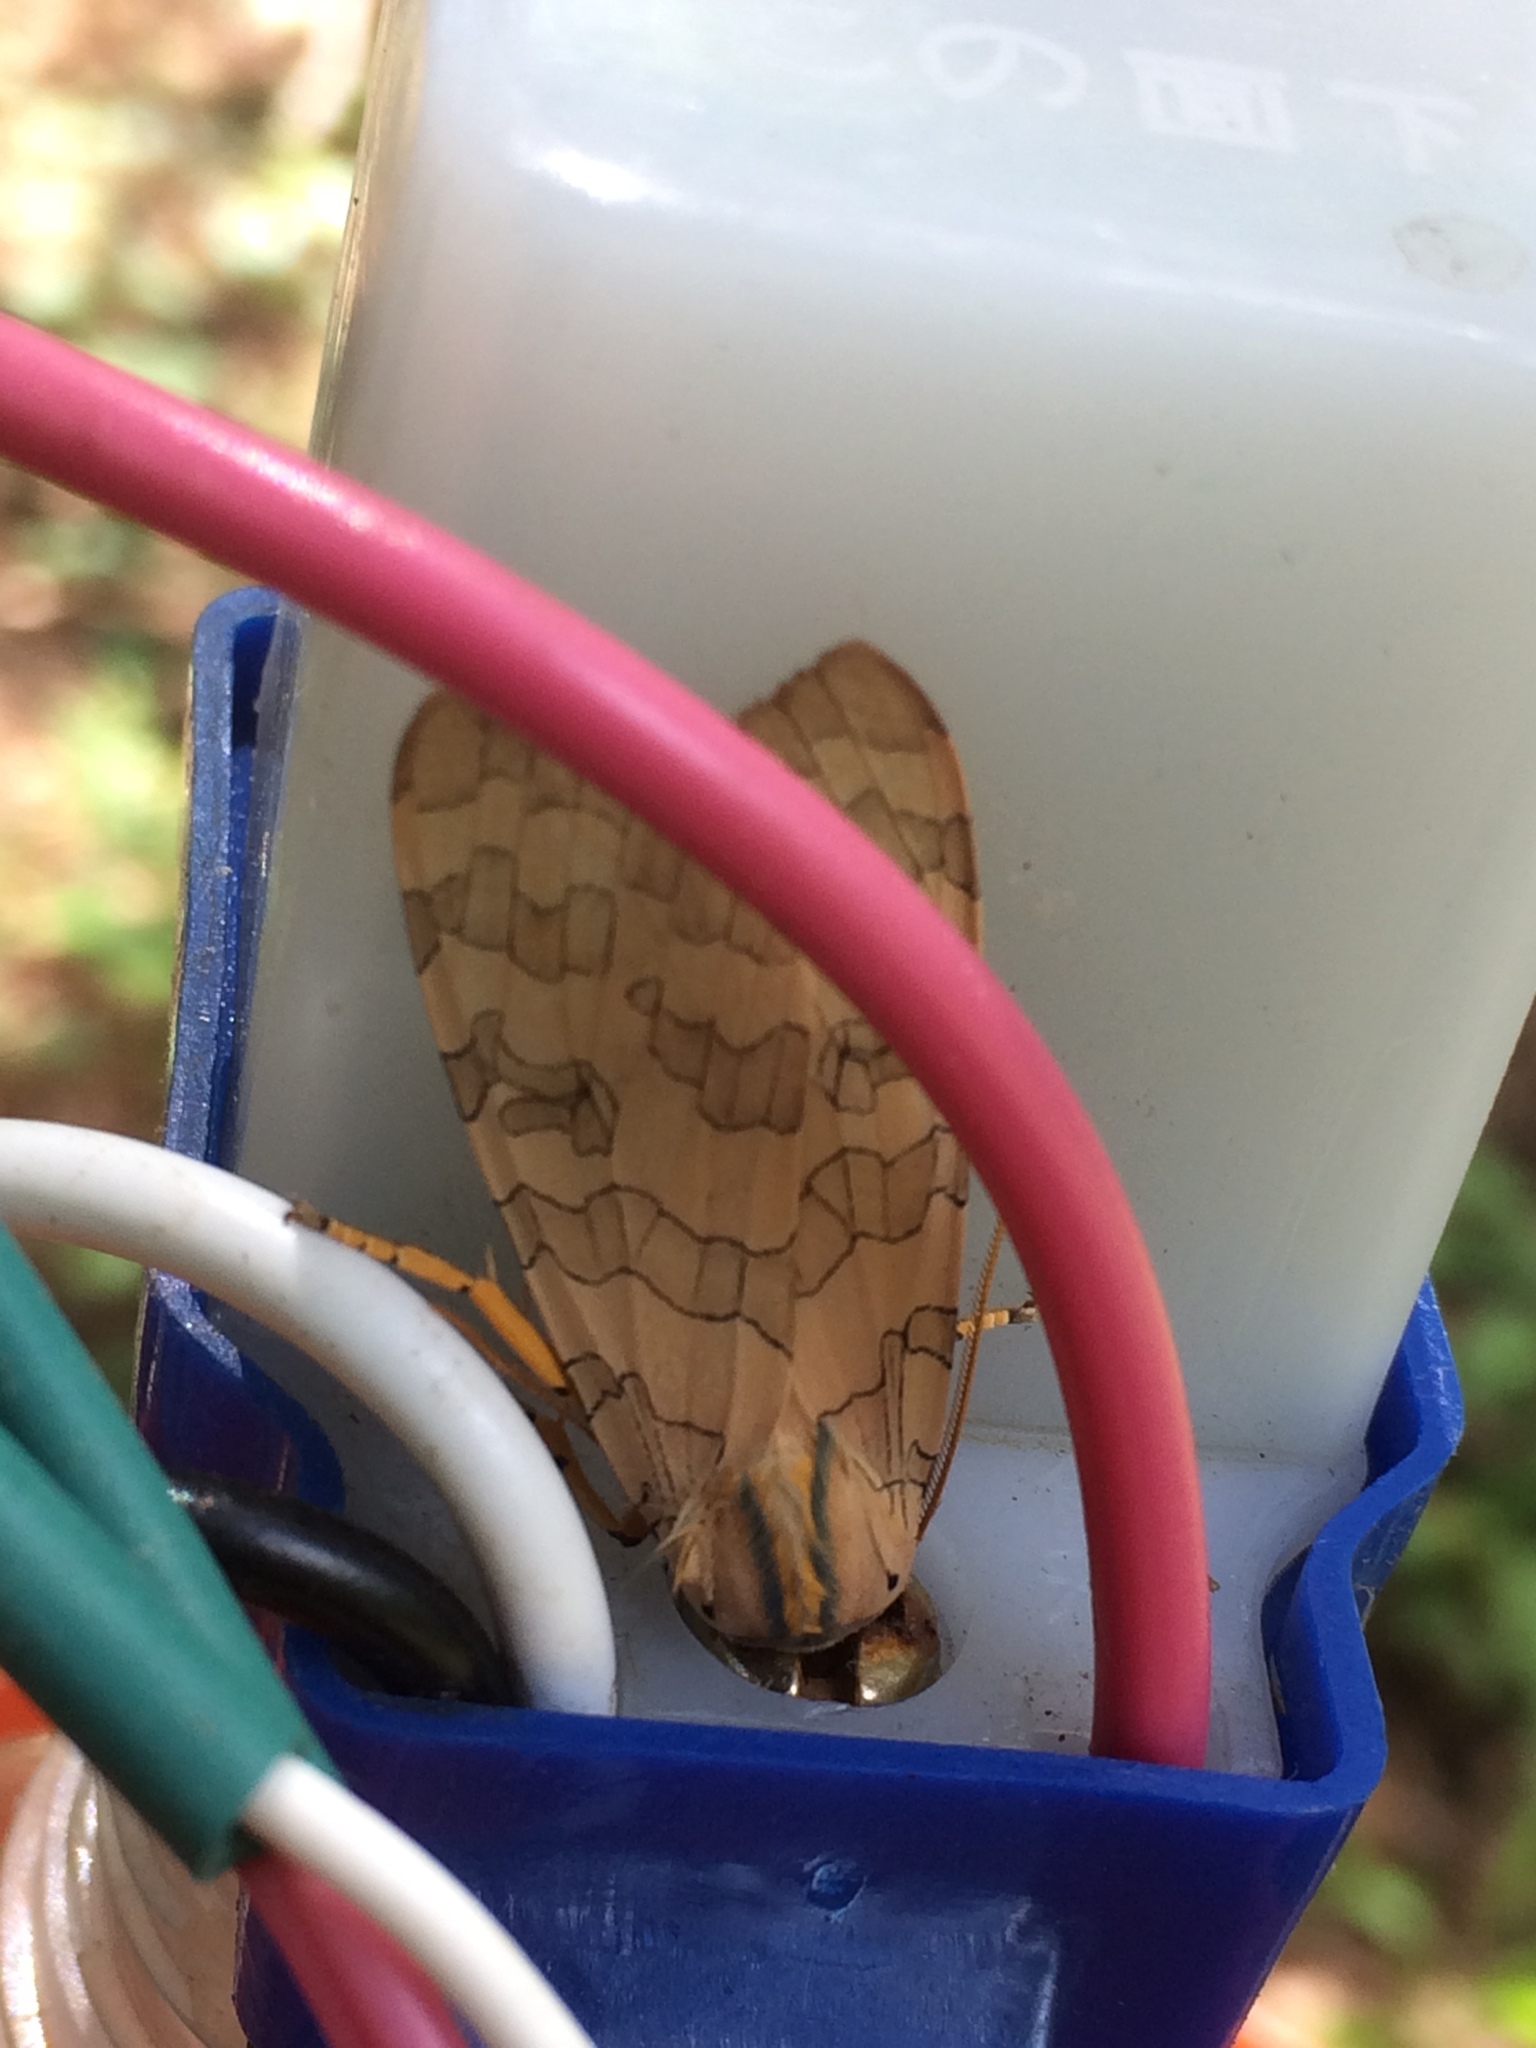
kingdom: Animalia
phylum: Arthropoda
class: Insecta
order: Lepidoptera
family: Erebidae
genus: Halysidota
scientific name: Halysidota
